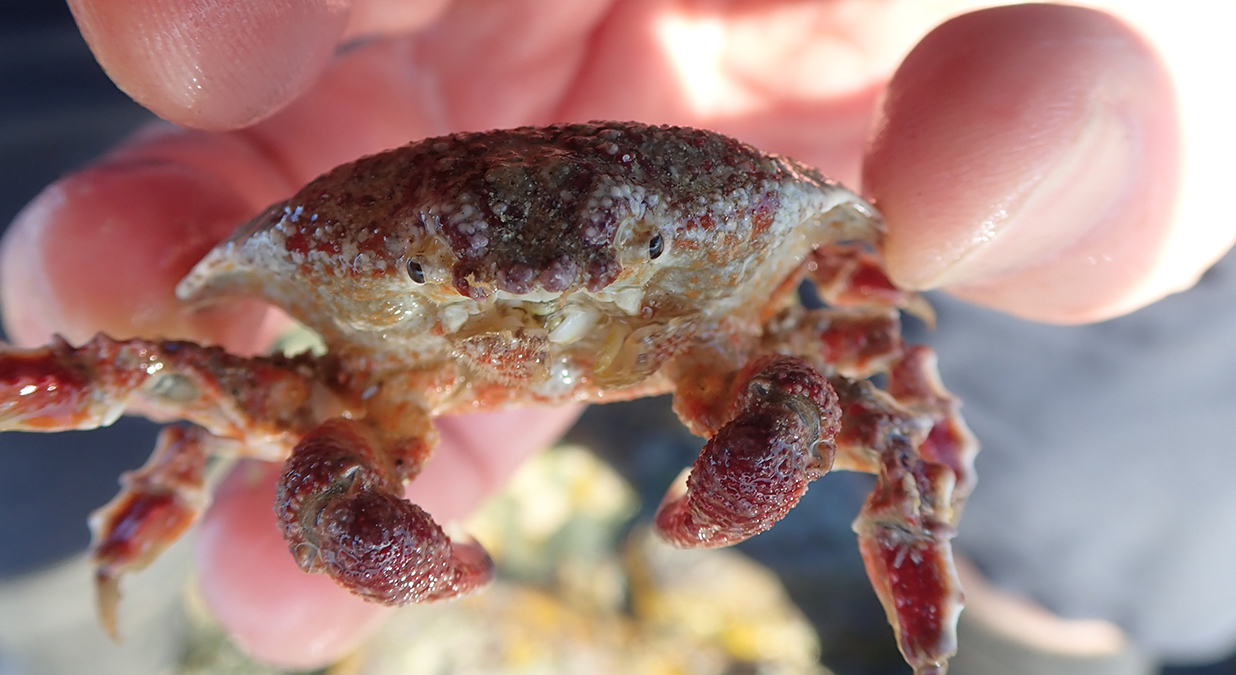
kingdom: Animalia
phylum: Arthropoda
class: Malacostraca
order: Decapoda
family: Majidae
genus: Eurynolambrus
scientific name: Eurynolambrus australis
